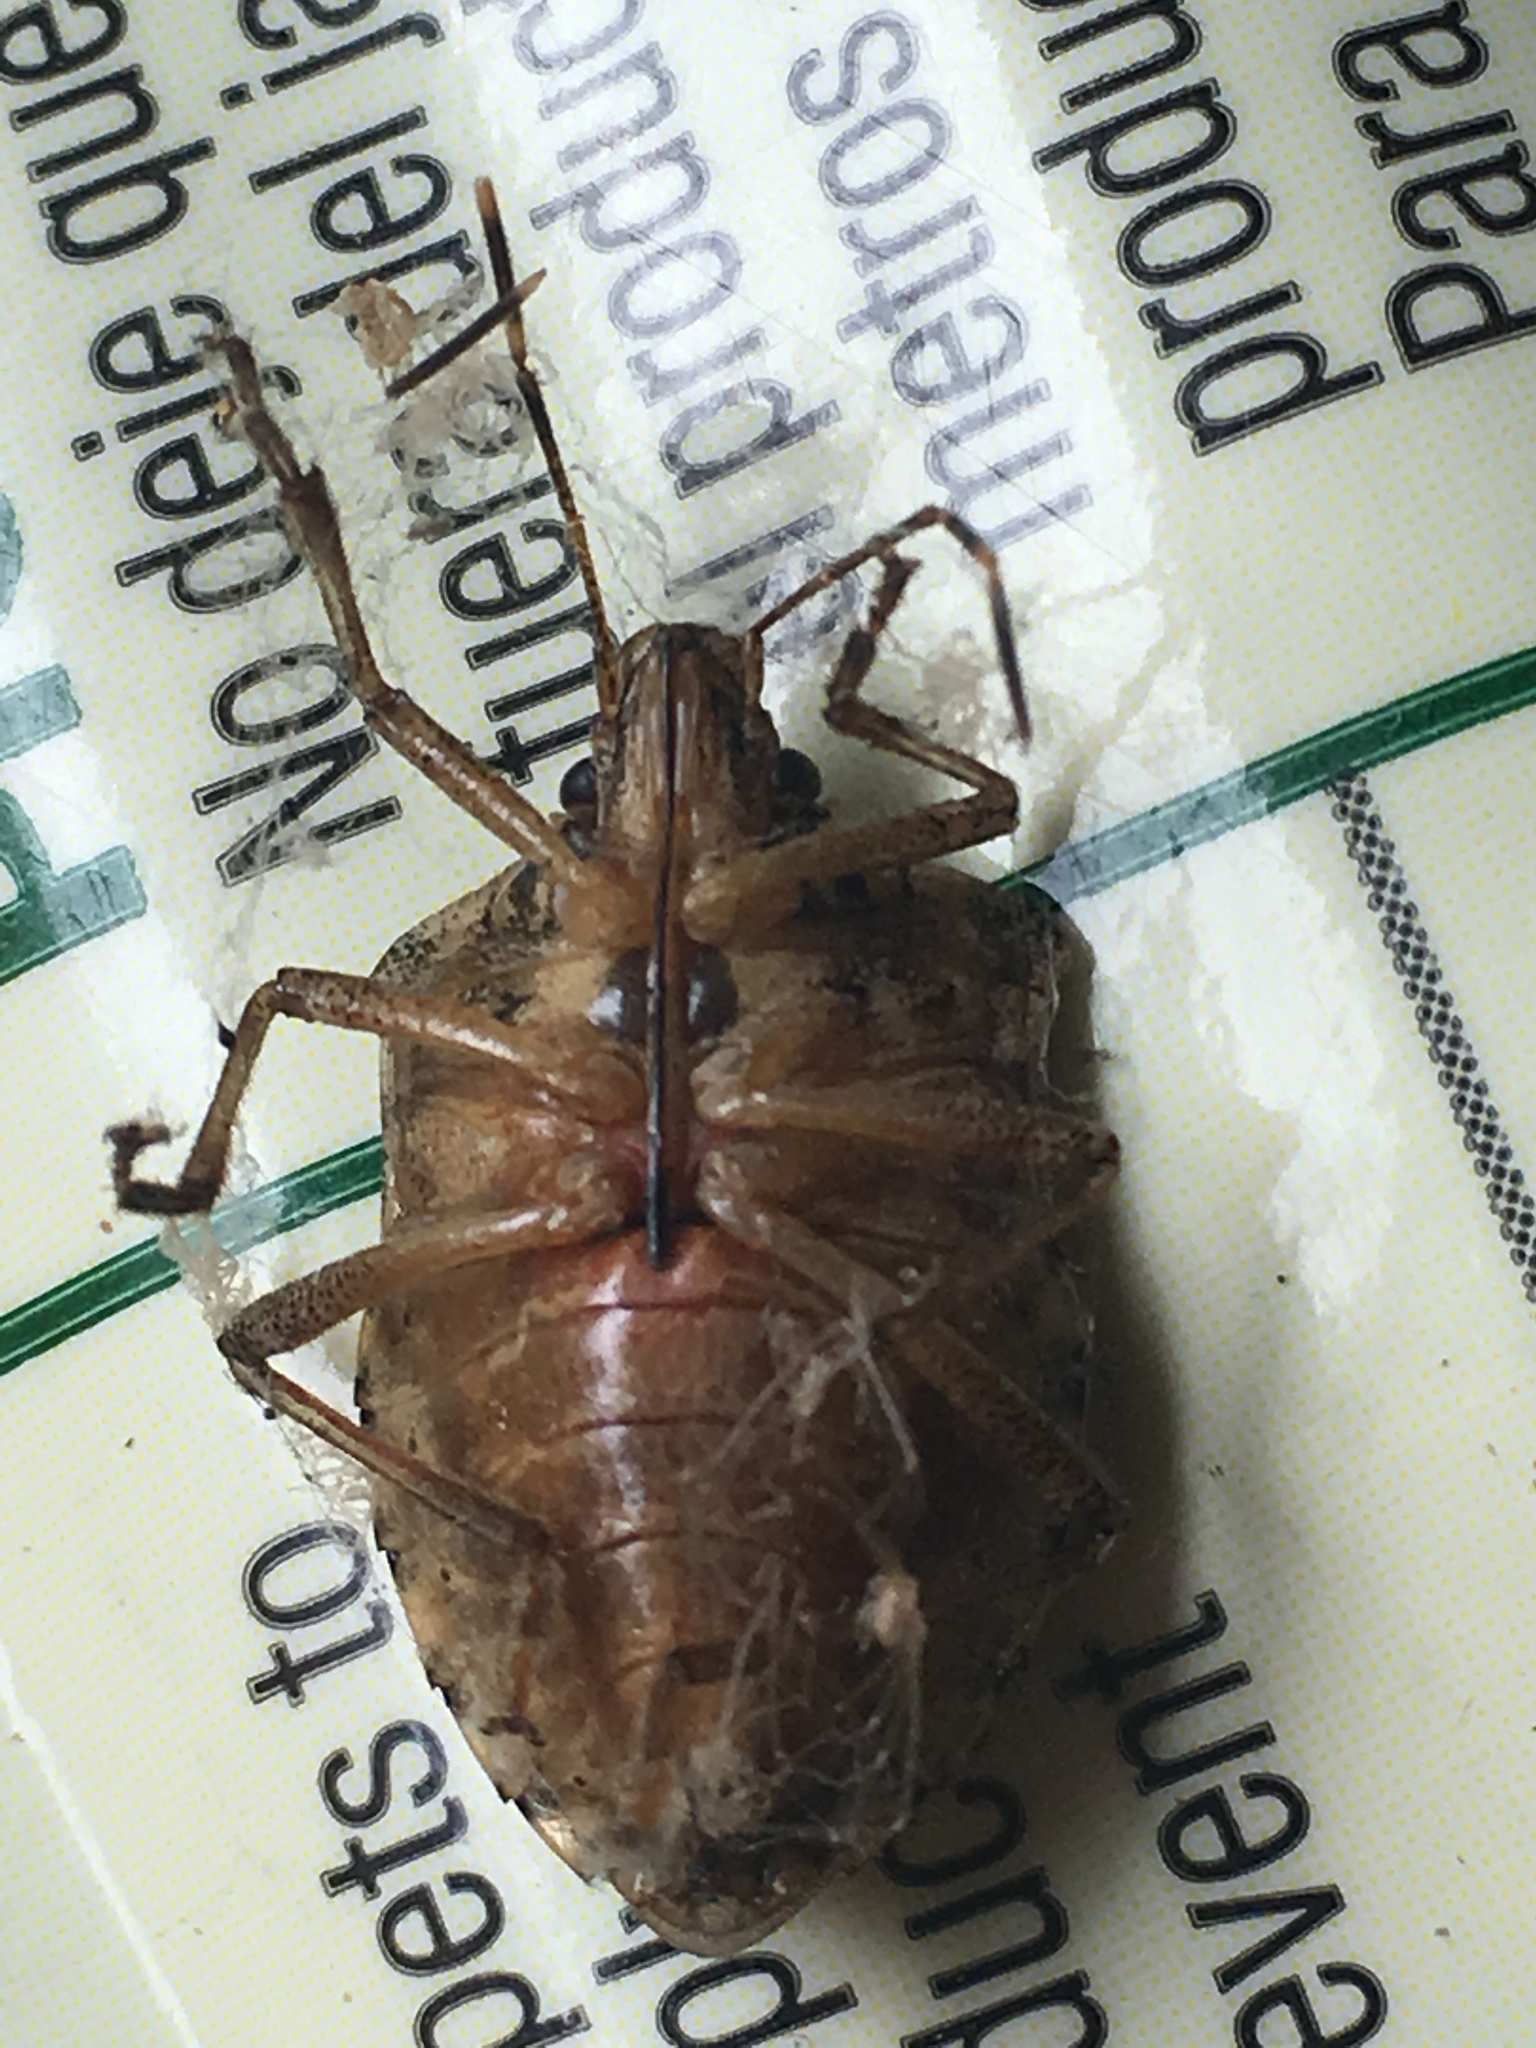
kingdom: Animalia
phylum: Arthropoda
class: Insecta
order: Hemiptera
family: Pentatomidae
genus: Halyomorpha
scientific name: Halyomorpha halys
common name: Brown marmorated stink bug
